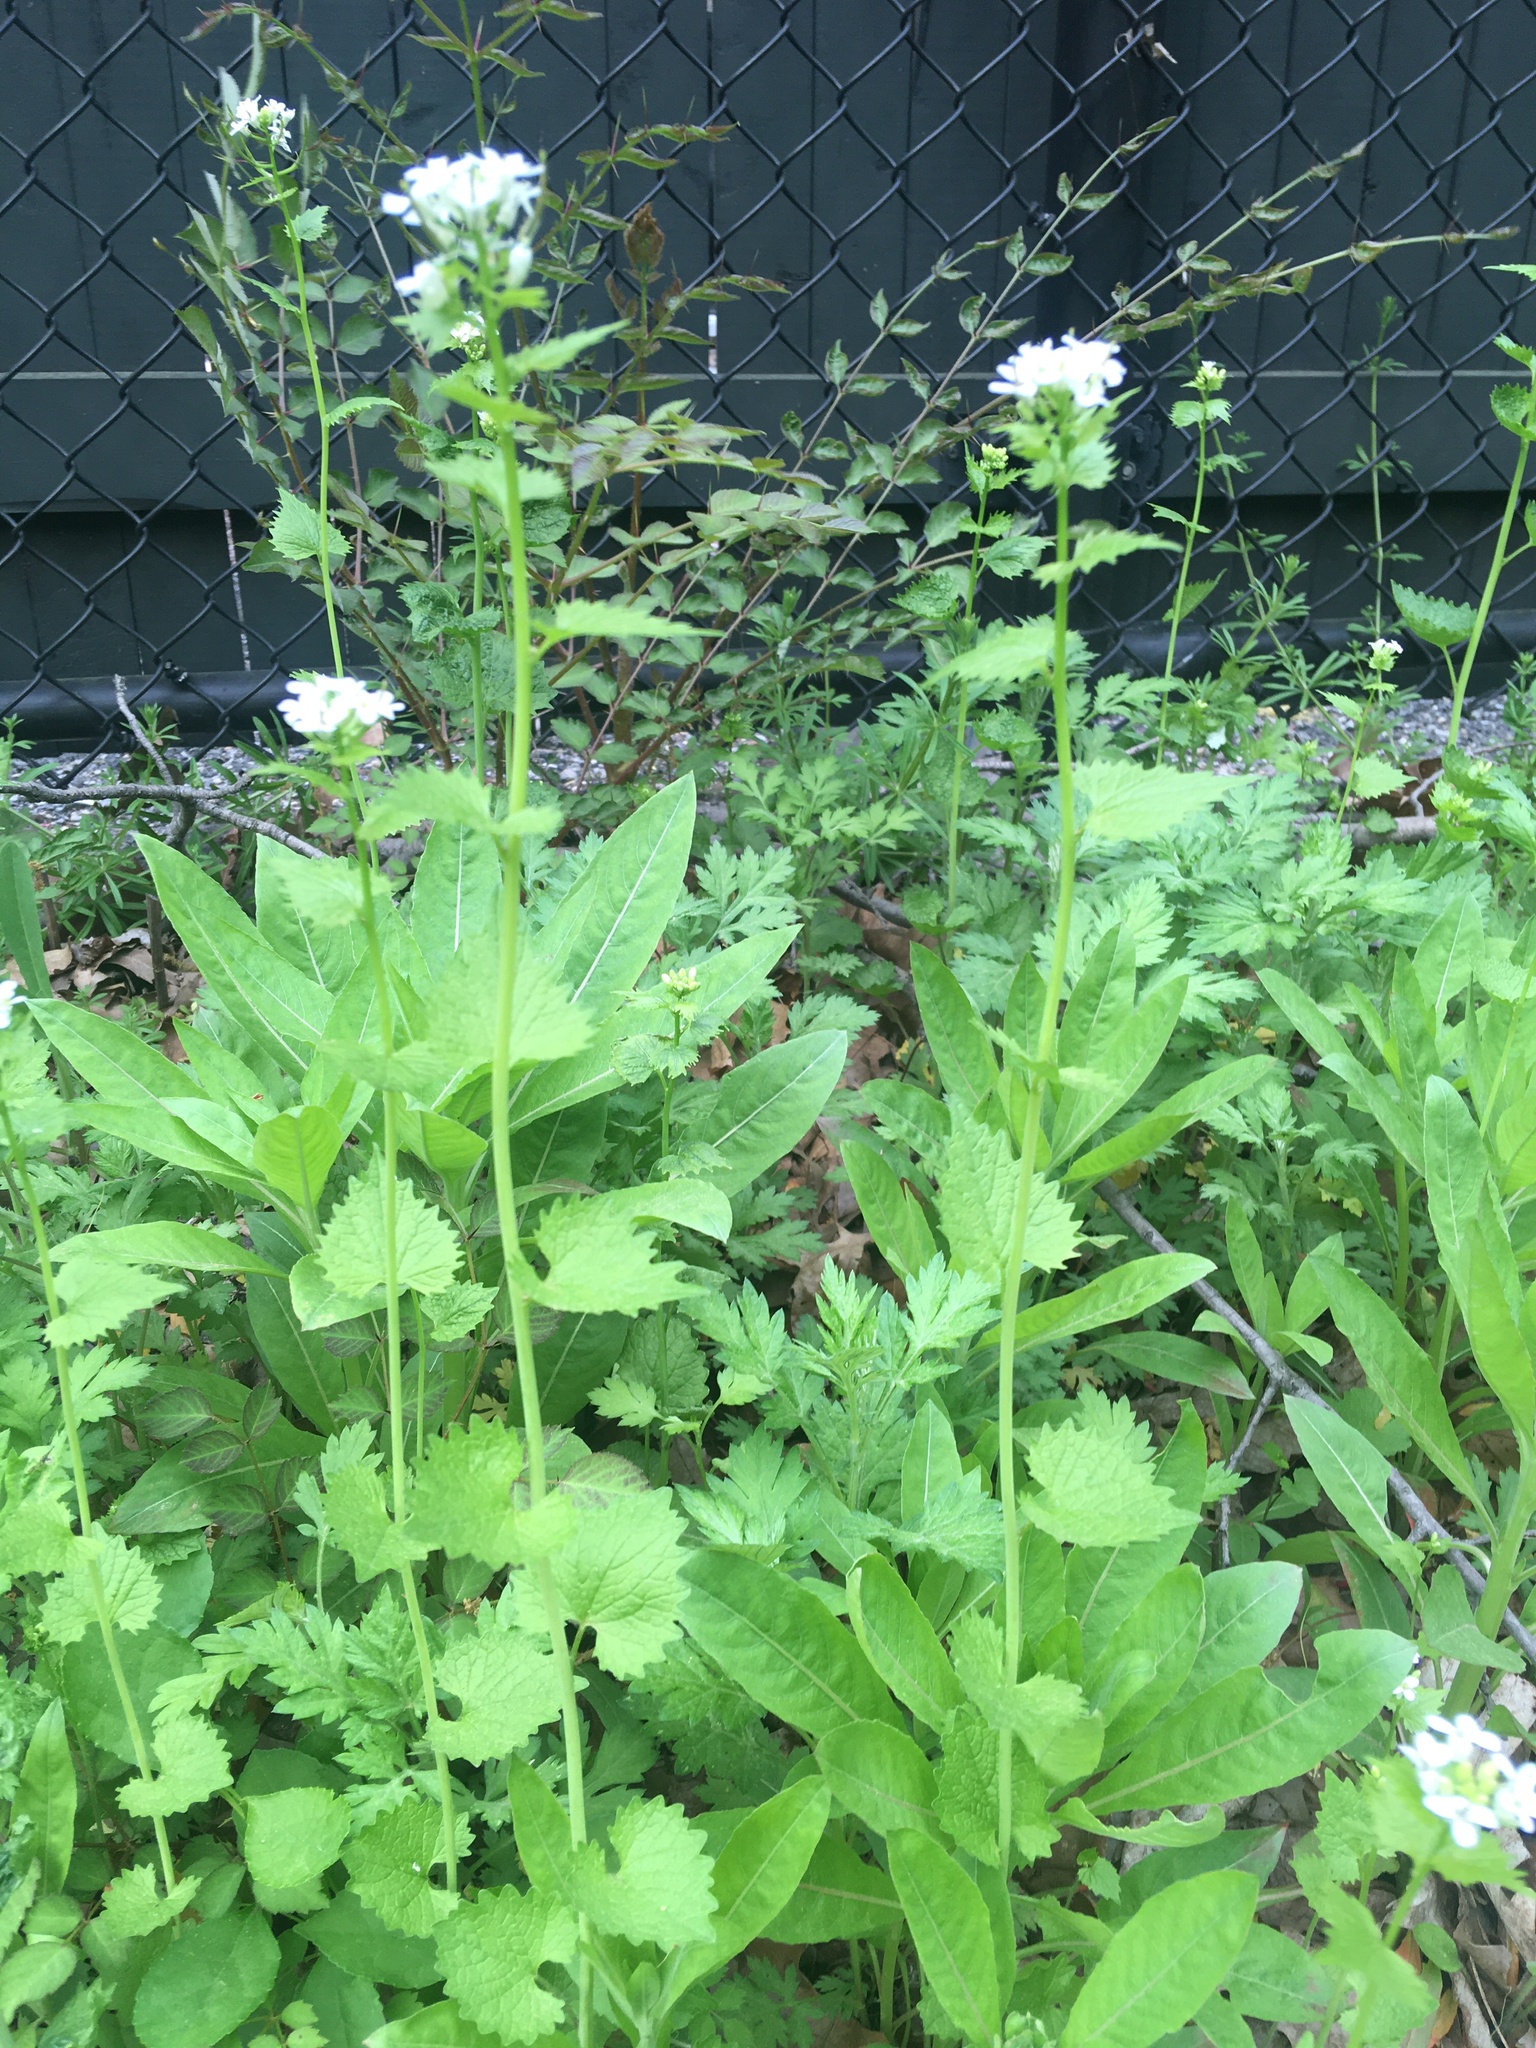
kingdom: Plantae
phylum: Tracheophyta
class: Magnoliopsida
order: Brassicales
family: Brassicaceae
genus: Alliaria
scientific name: Alliaria petiolata
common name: Garlic mustard
